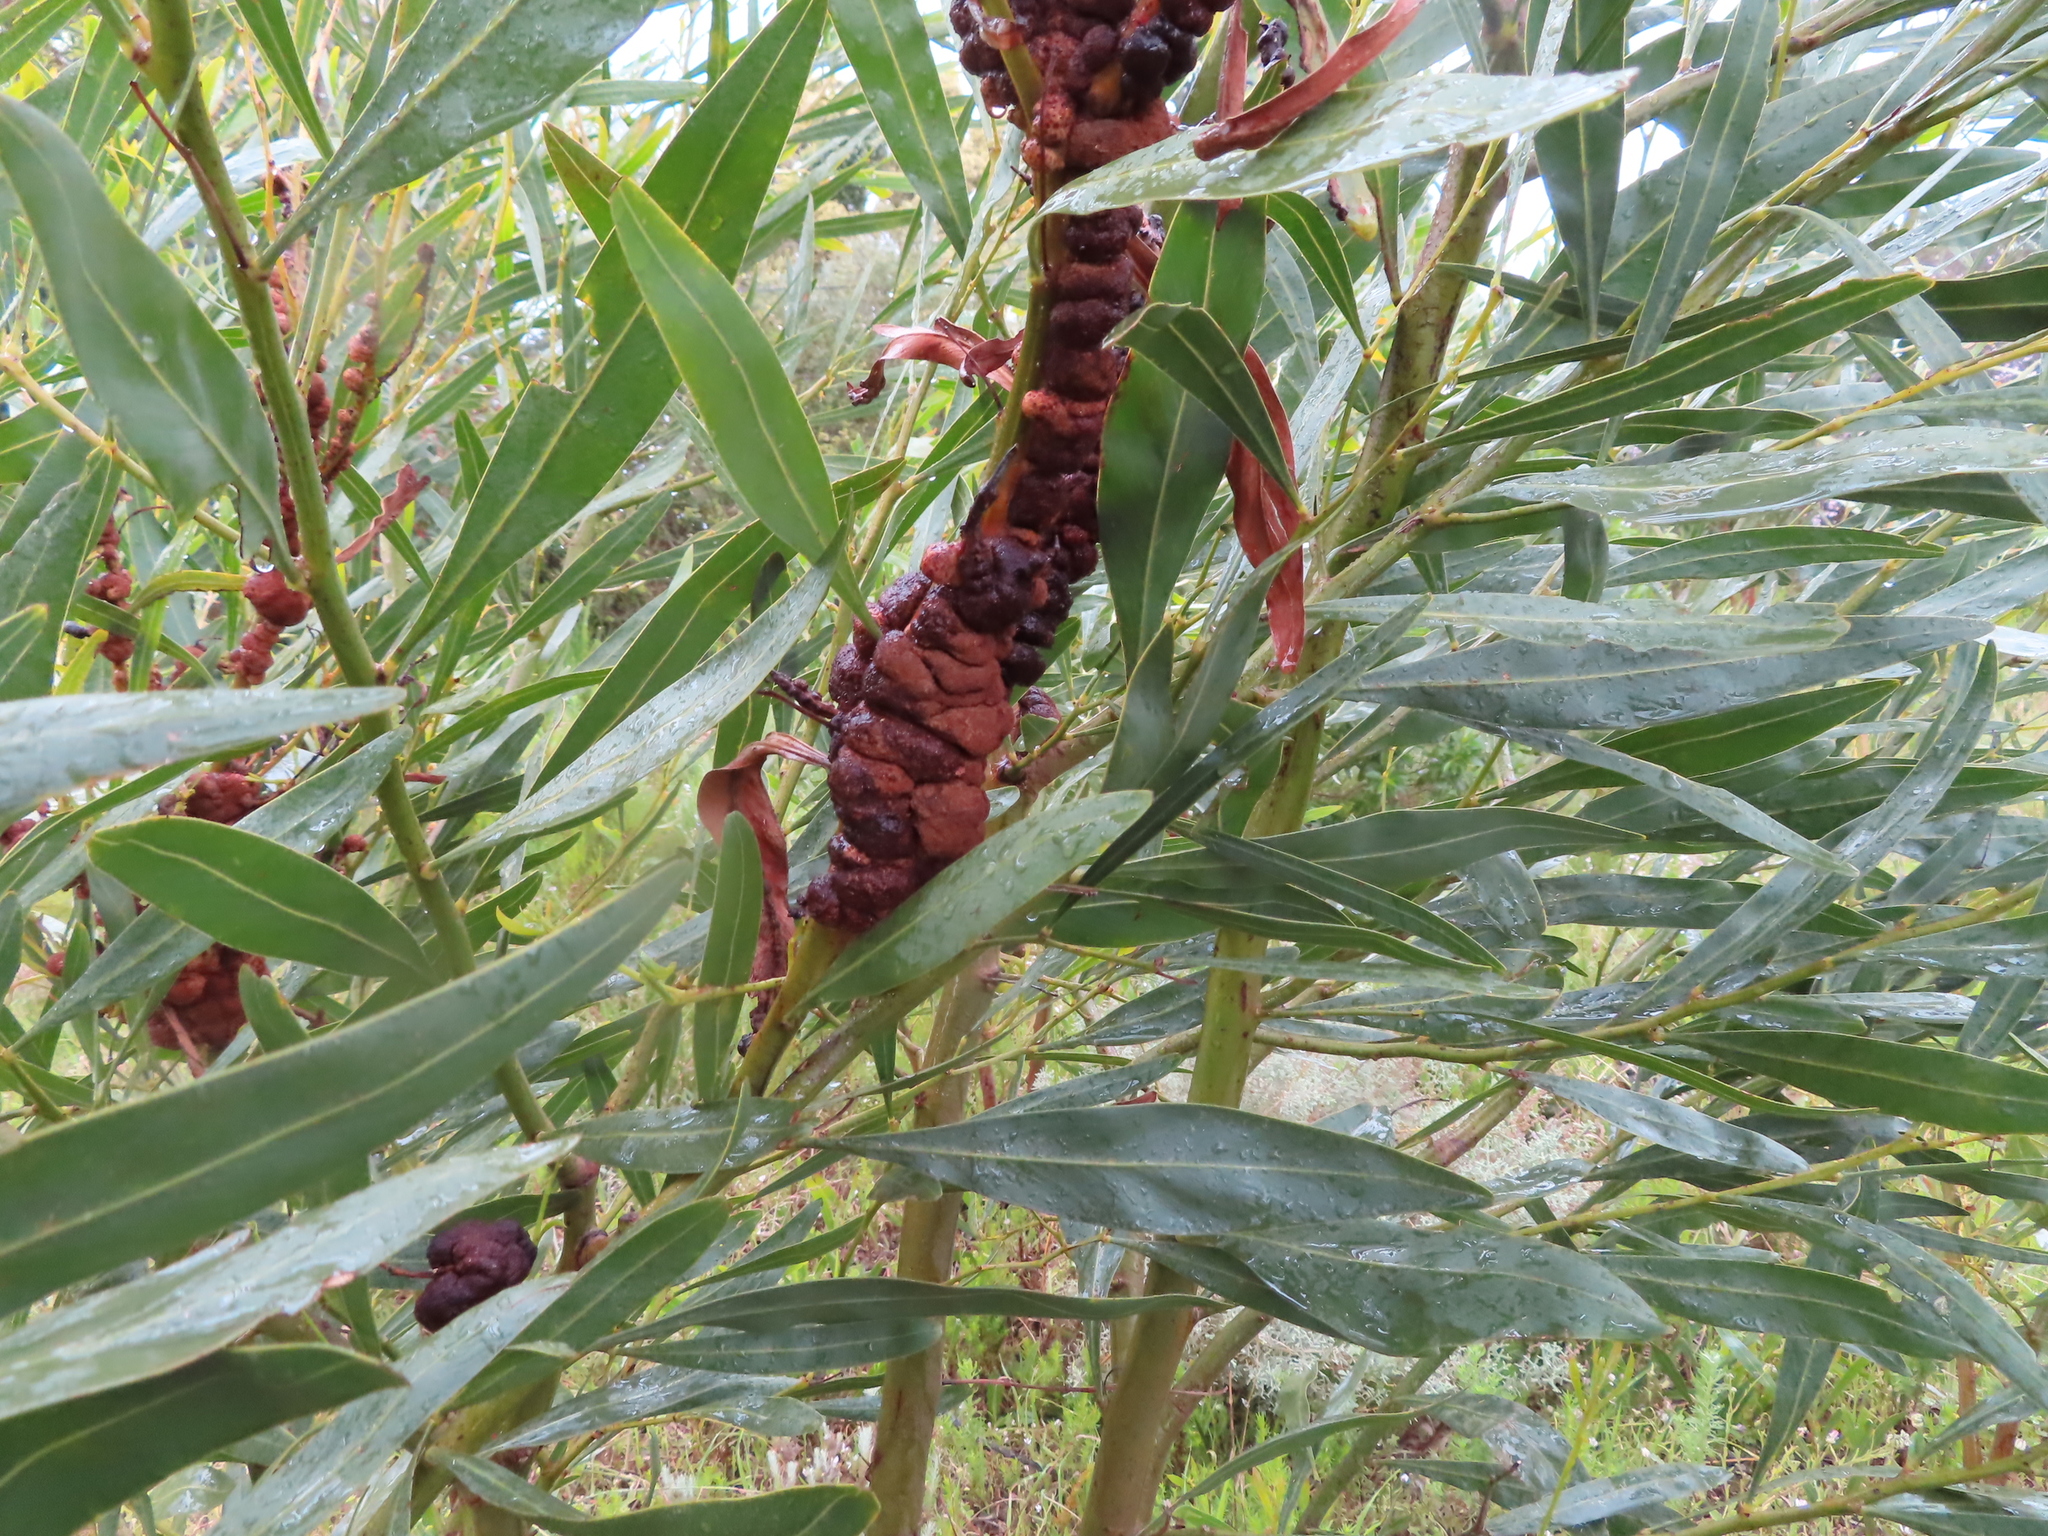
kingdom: Fungi
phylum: Basidiomycota
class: Pucciniomycetes
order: Pucciniales
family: Uromycladiaceae
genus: Uromycladium
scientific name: Uromycladium morrisii
